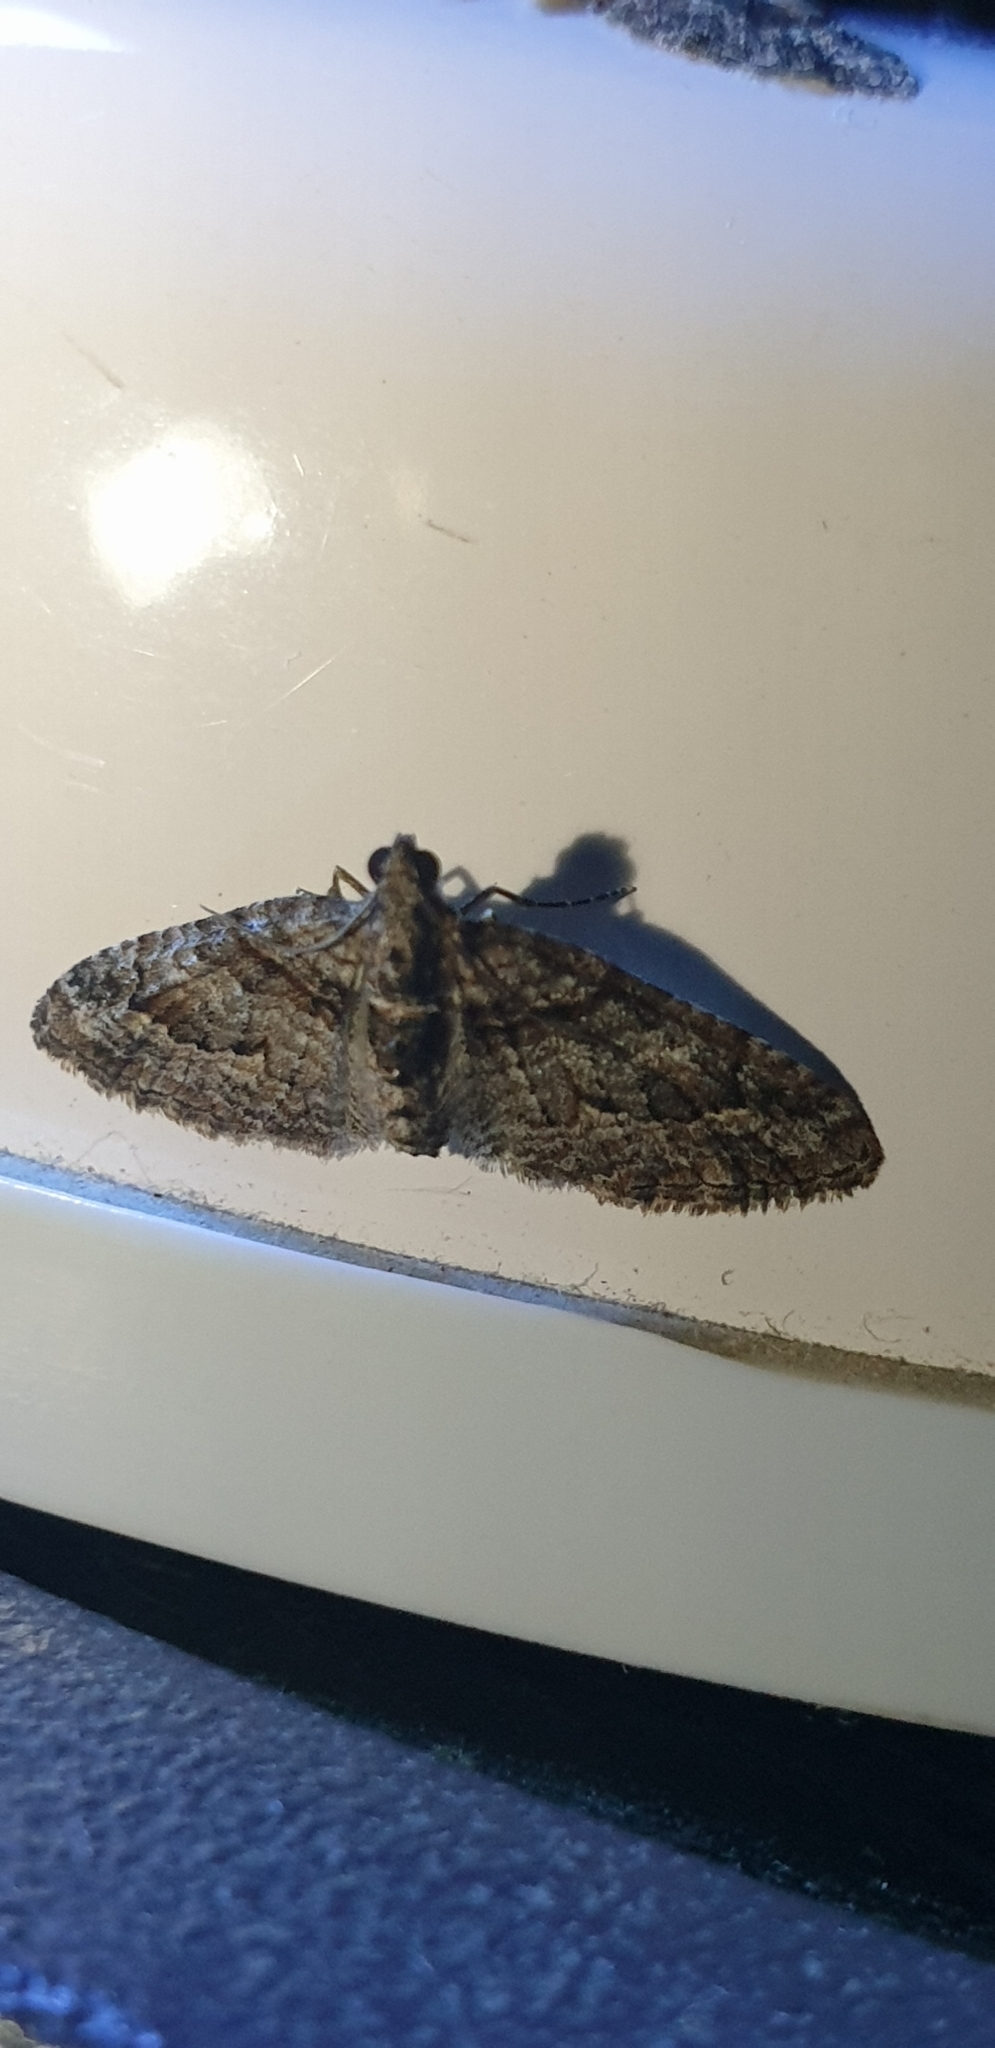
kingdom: Animalia
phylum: Arthropoda
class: Insecta
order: Lepidoptera
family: Geometridae
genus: Phrissogonus
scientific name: Phrissogonus laticostata
